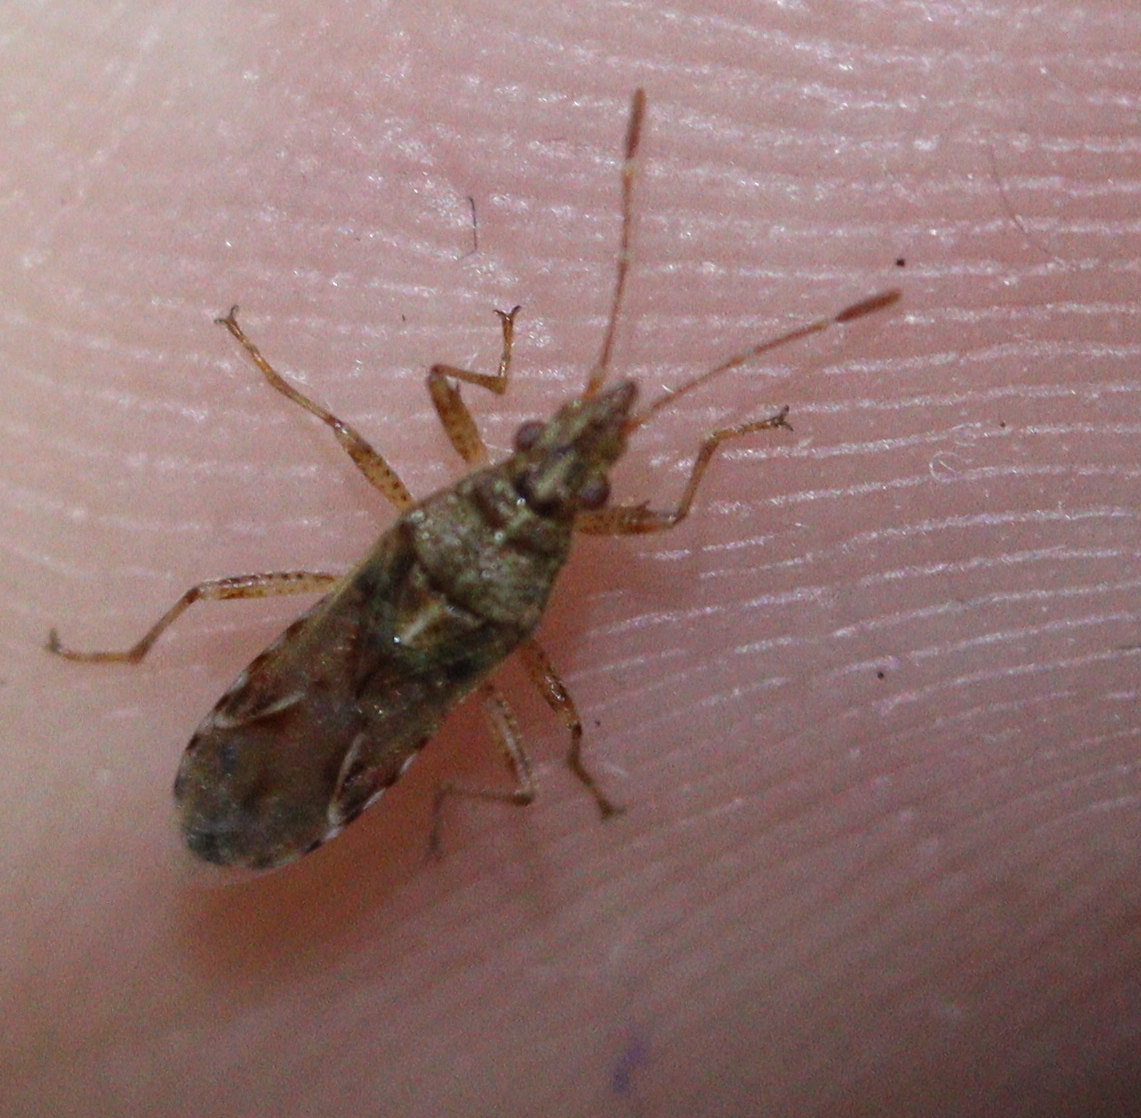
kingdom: Animalia
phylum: Arthropoda
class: Insecta
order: Hemiptera
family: Lygaeidae
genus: Belonochilus
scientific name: Belonochilus numenius
